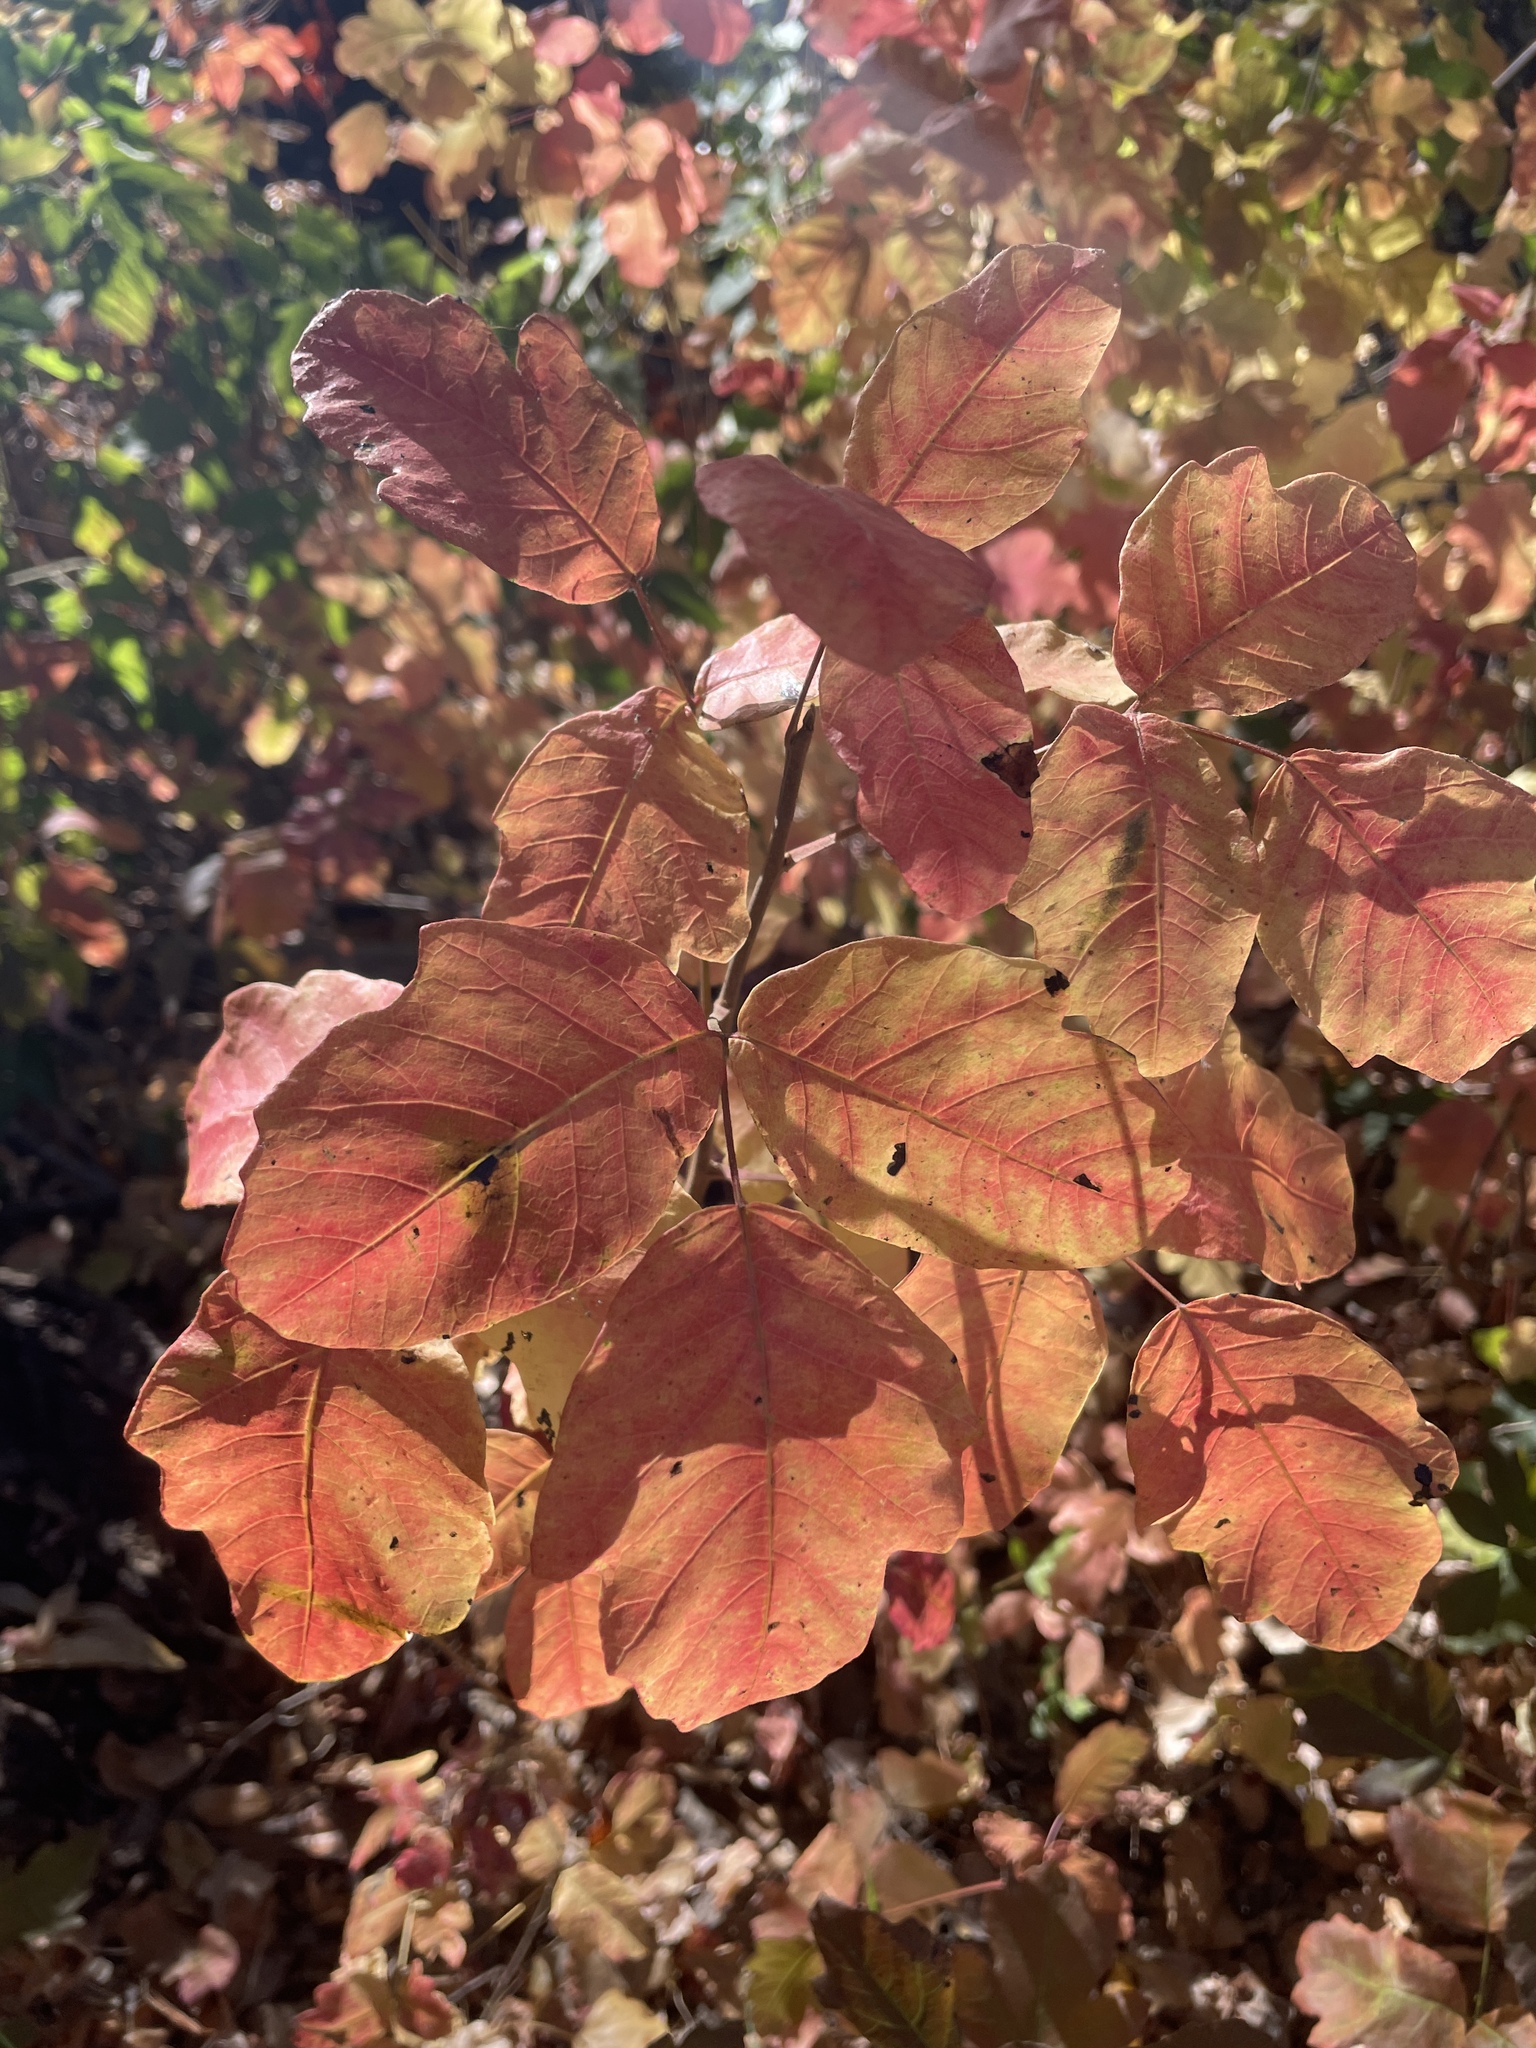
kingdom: Plantae
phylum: Tracheophyta
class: Magnoliopsida
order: Sapindales
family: Anacardiaceae
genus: Toxicodendron
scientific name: Toxicodendron diversilobum
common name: Pacific poison-oak
